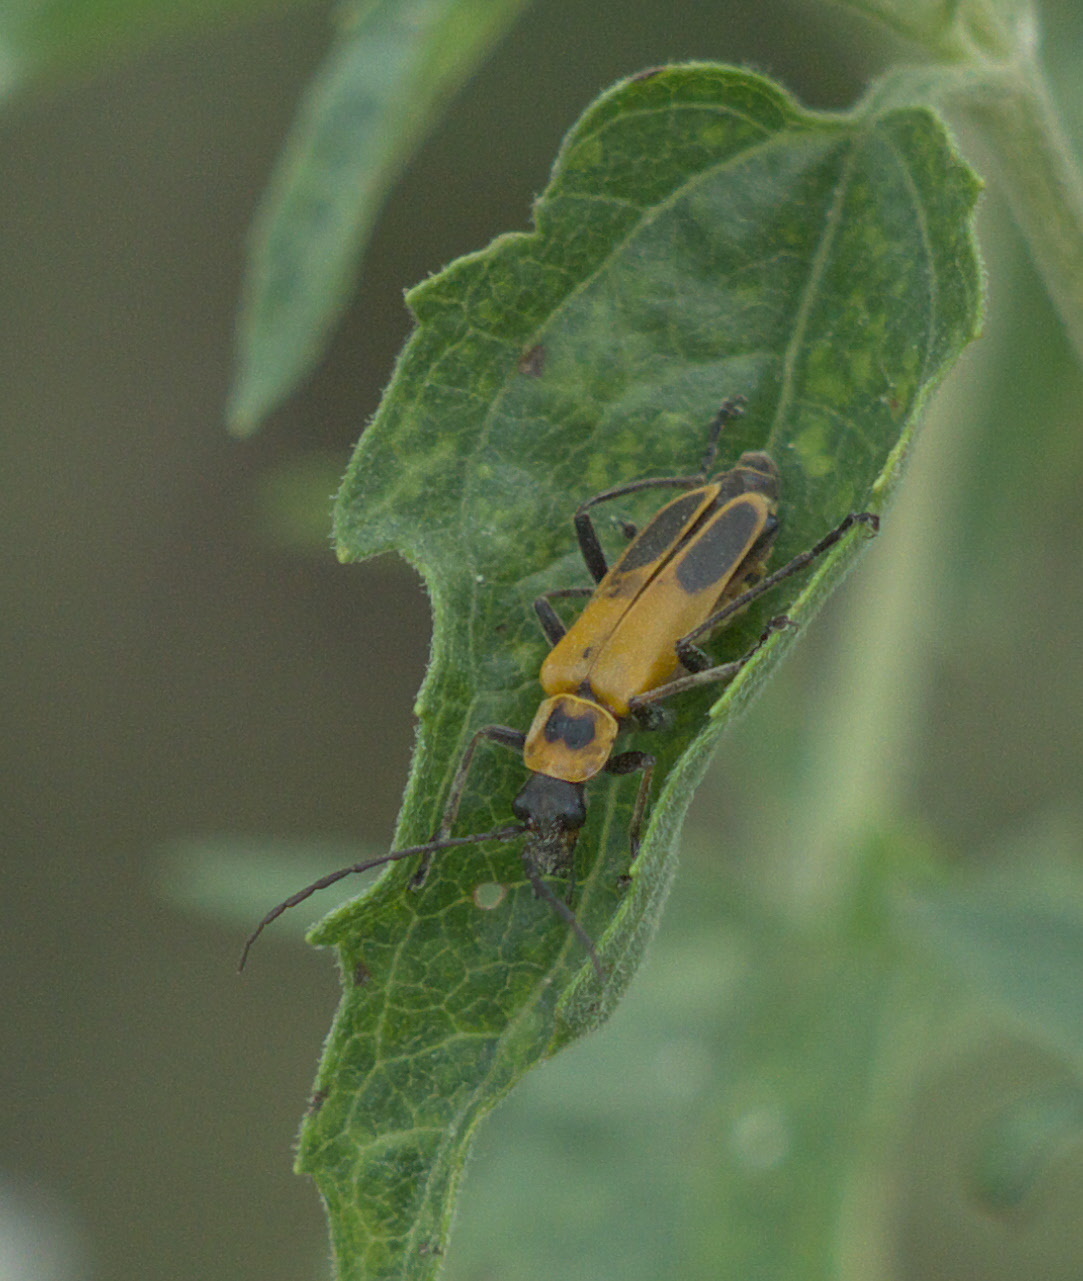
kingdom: Animalia
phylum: Arthropoda
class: Insecta
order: Coleoptera
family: Cantharidae
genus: Chauliognathus
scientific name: Chauliognathus pensylvanicus
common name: Goldenrod soldier beetle
